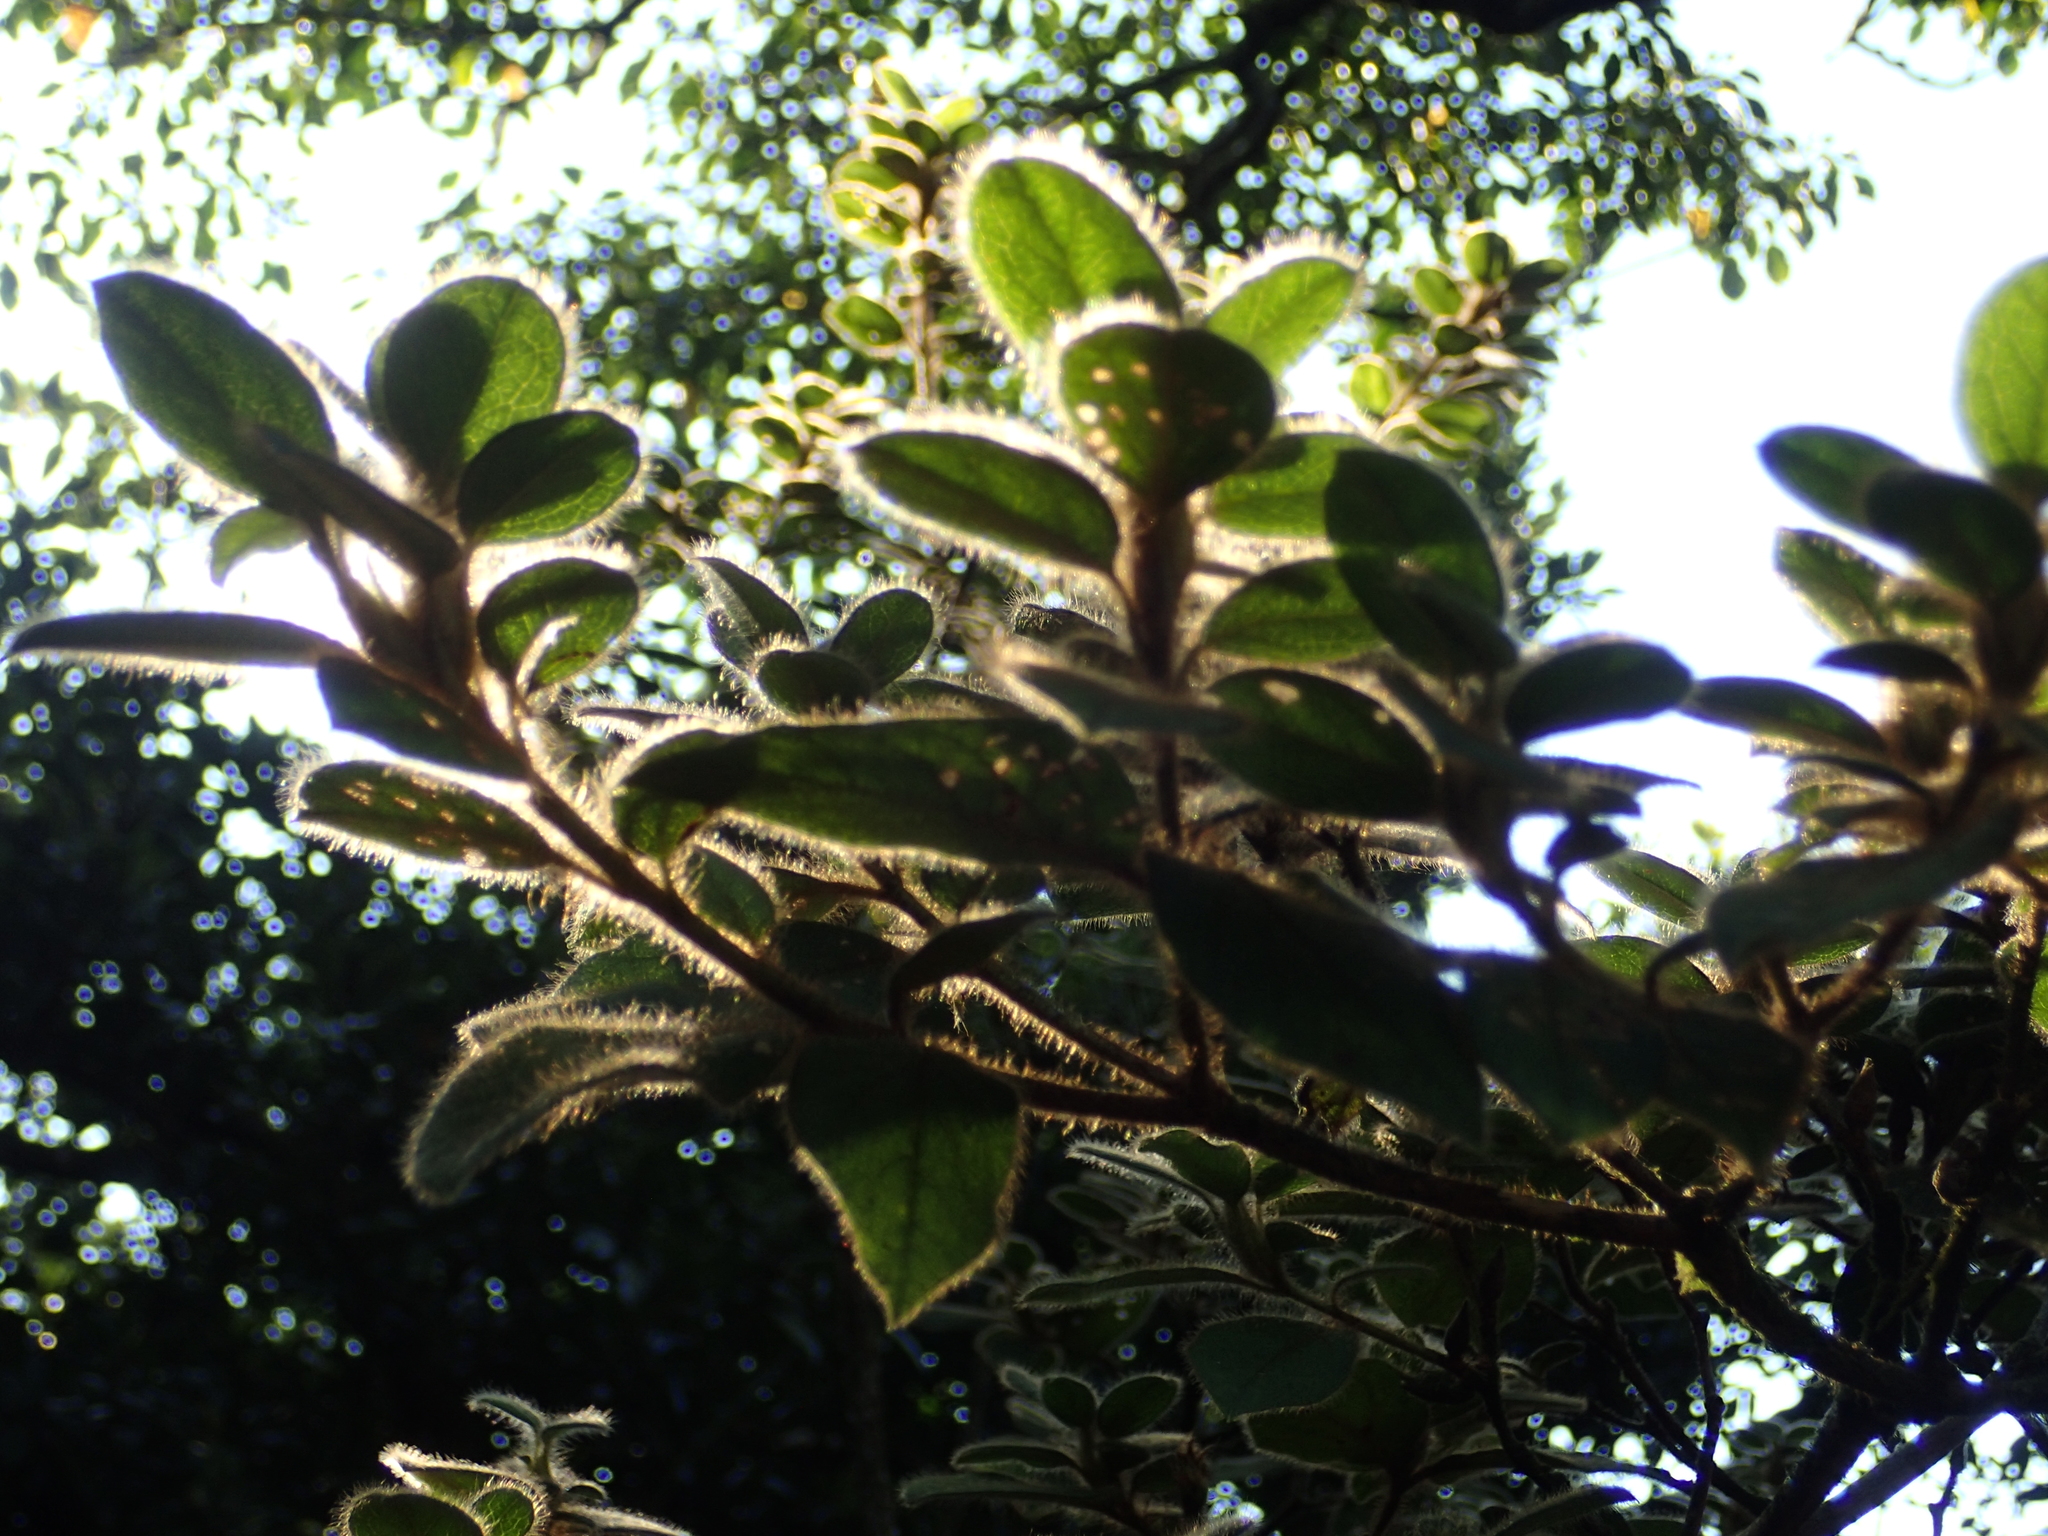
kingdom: Plantae
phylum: Tracheophyta
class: Magnoliopsida
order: Ericales
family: Ericaceae
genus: Rhododendron
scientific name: Rhododendron oldhamii
